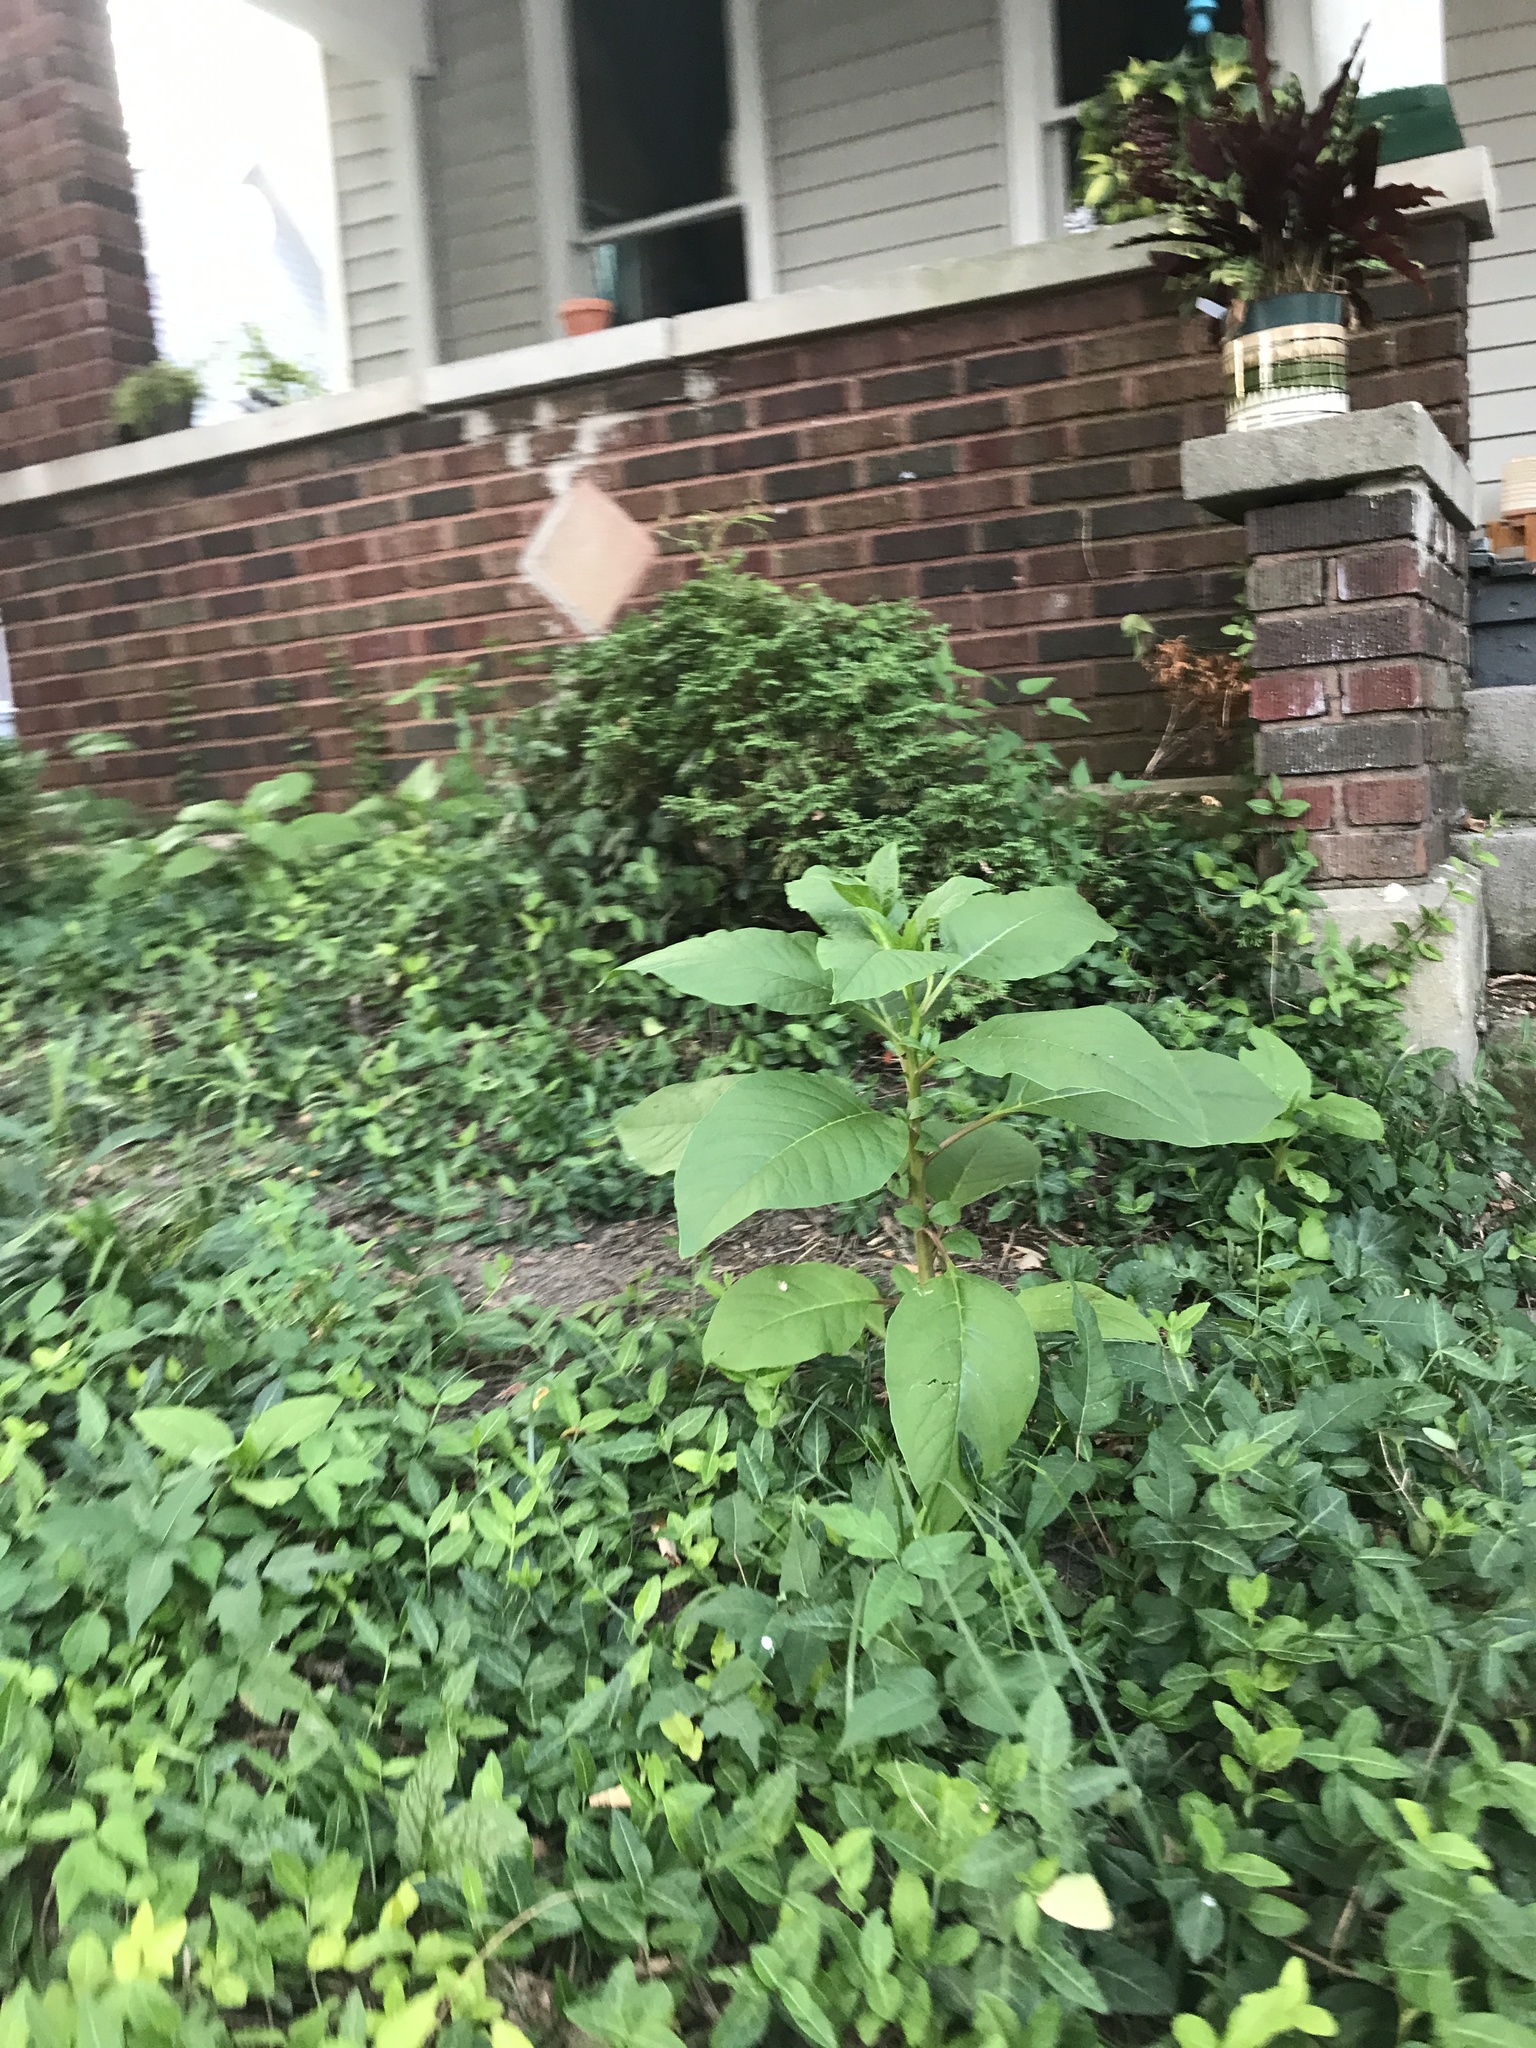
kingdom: Plantae
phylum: Tracheophyta
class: Magnoliopsida
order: Caryophyllales
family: Phytolaccaceae
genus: Phytolacca
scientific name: Phytolacca americana
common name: American pokeweed
